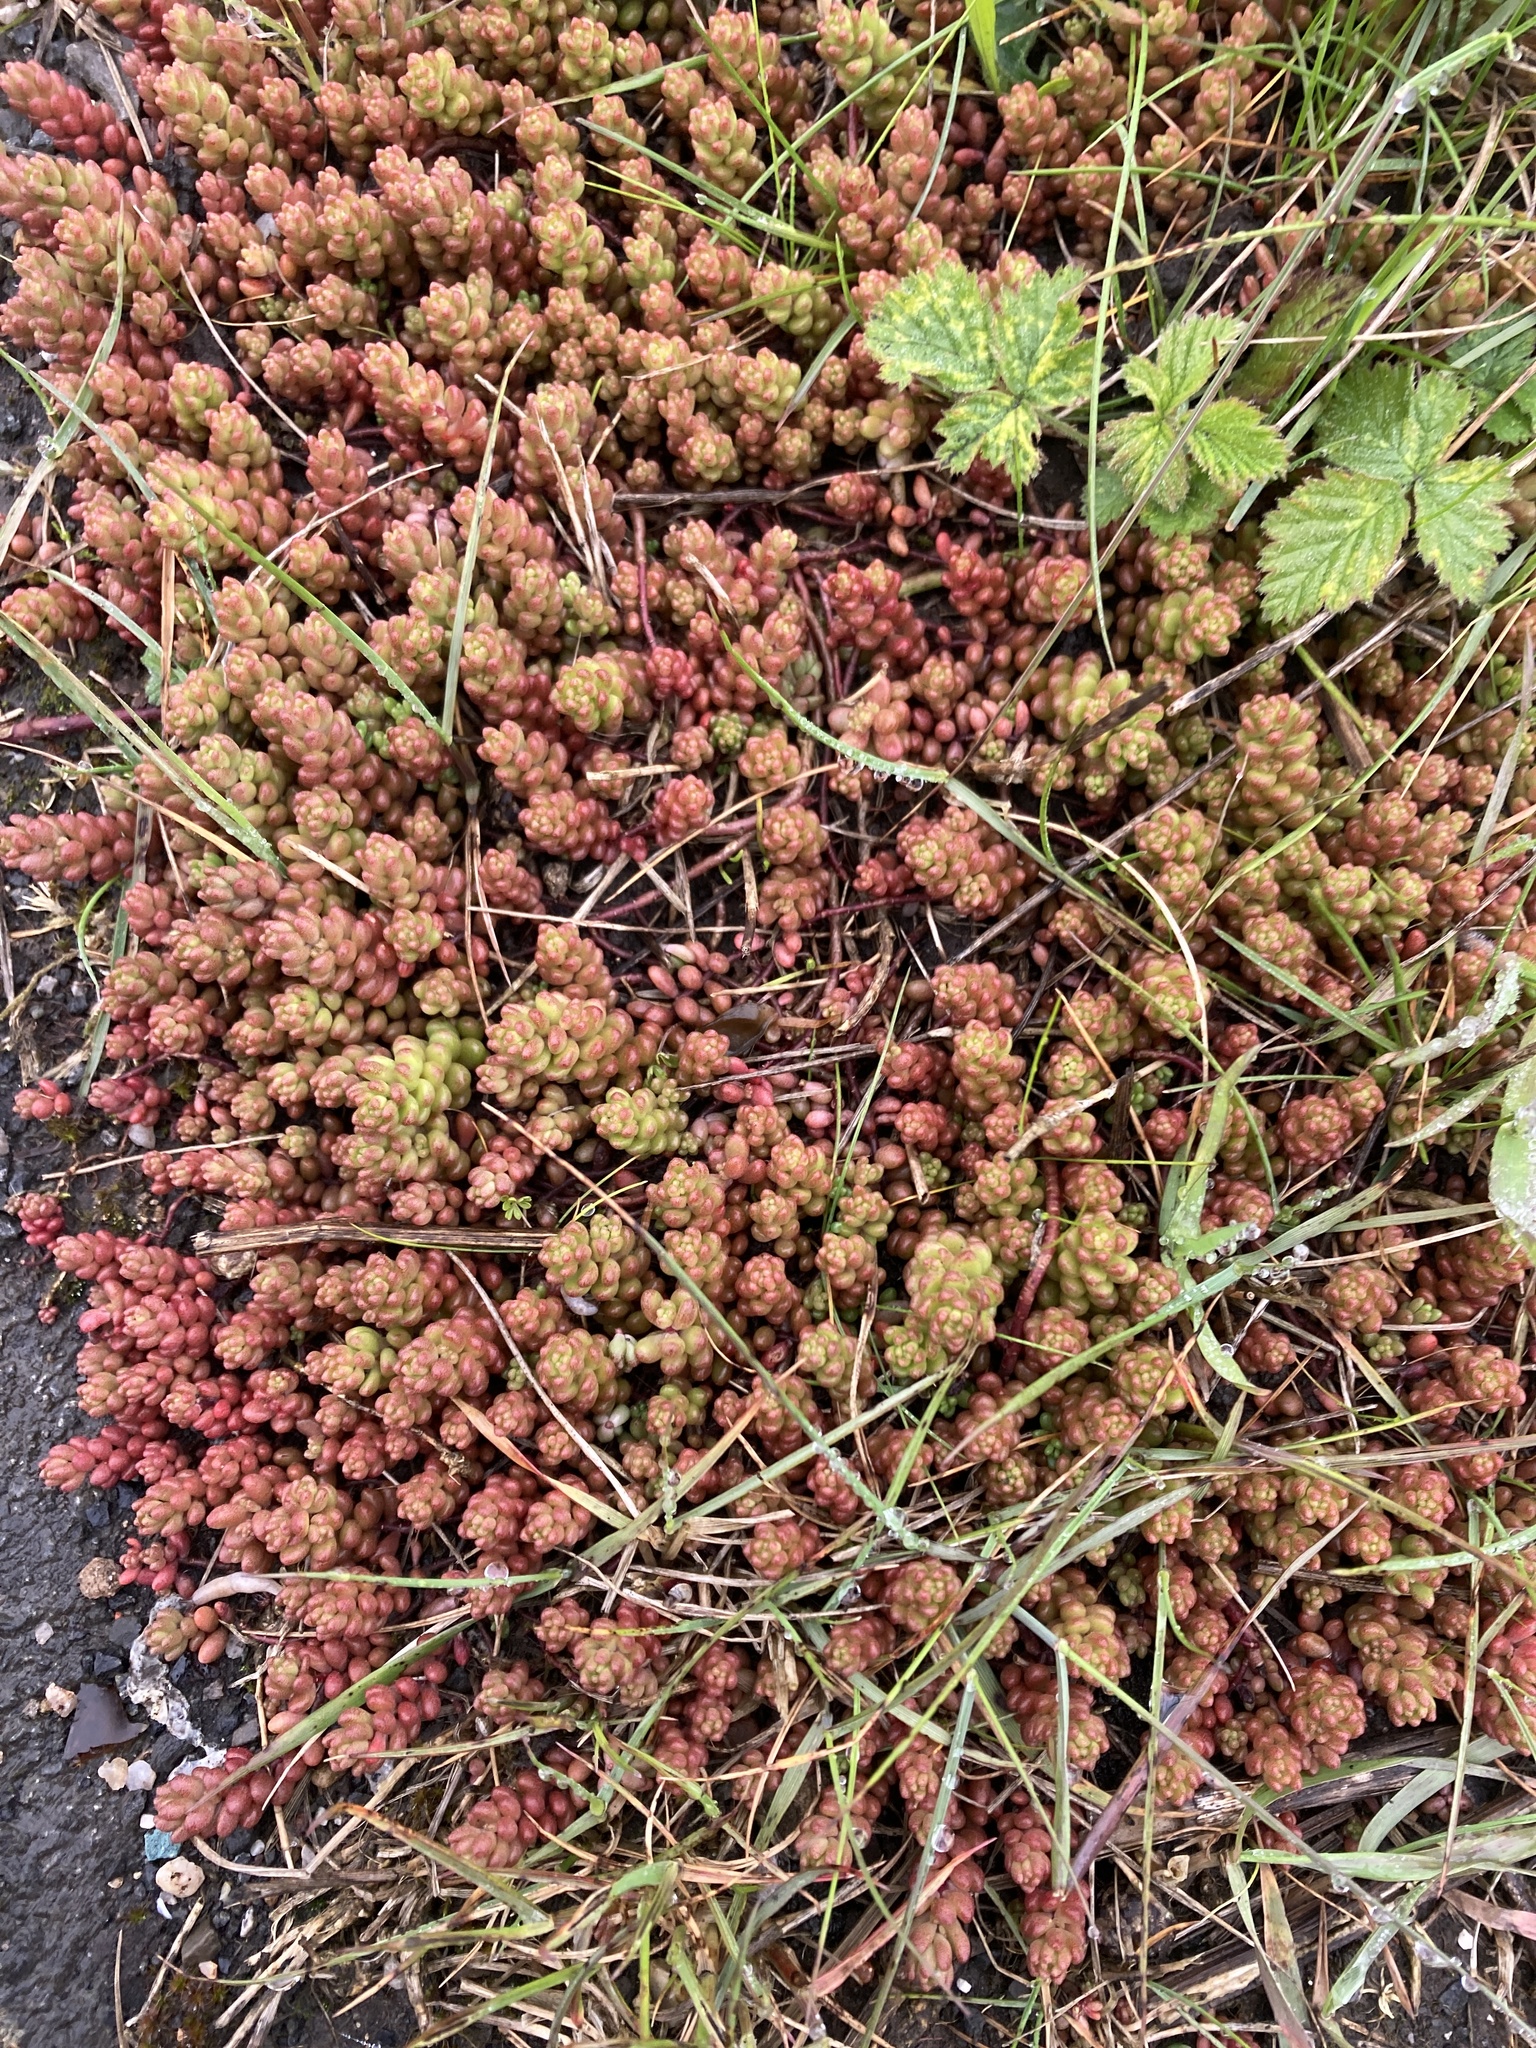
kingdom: Plantae
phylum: Tracheophyta
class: Magnoliopsida
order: Saxifragales
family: Crassulaceae
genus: Sedum
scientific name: Sedum album
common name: White stonecrop
